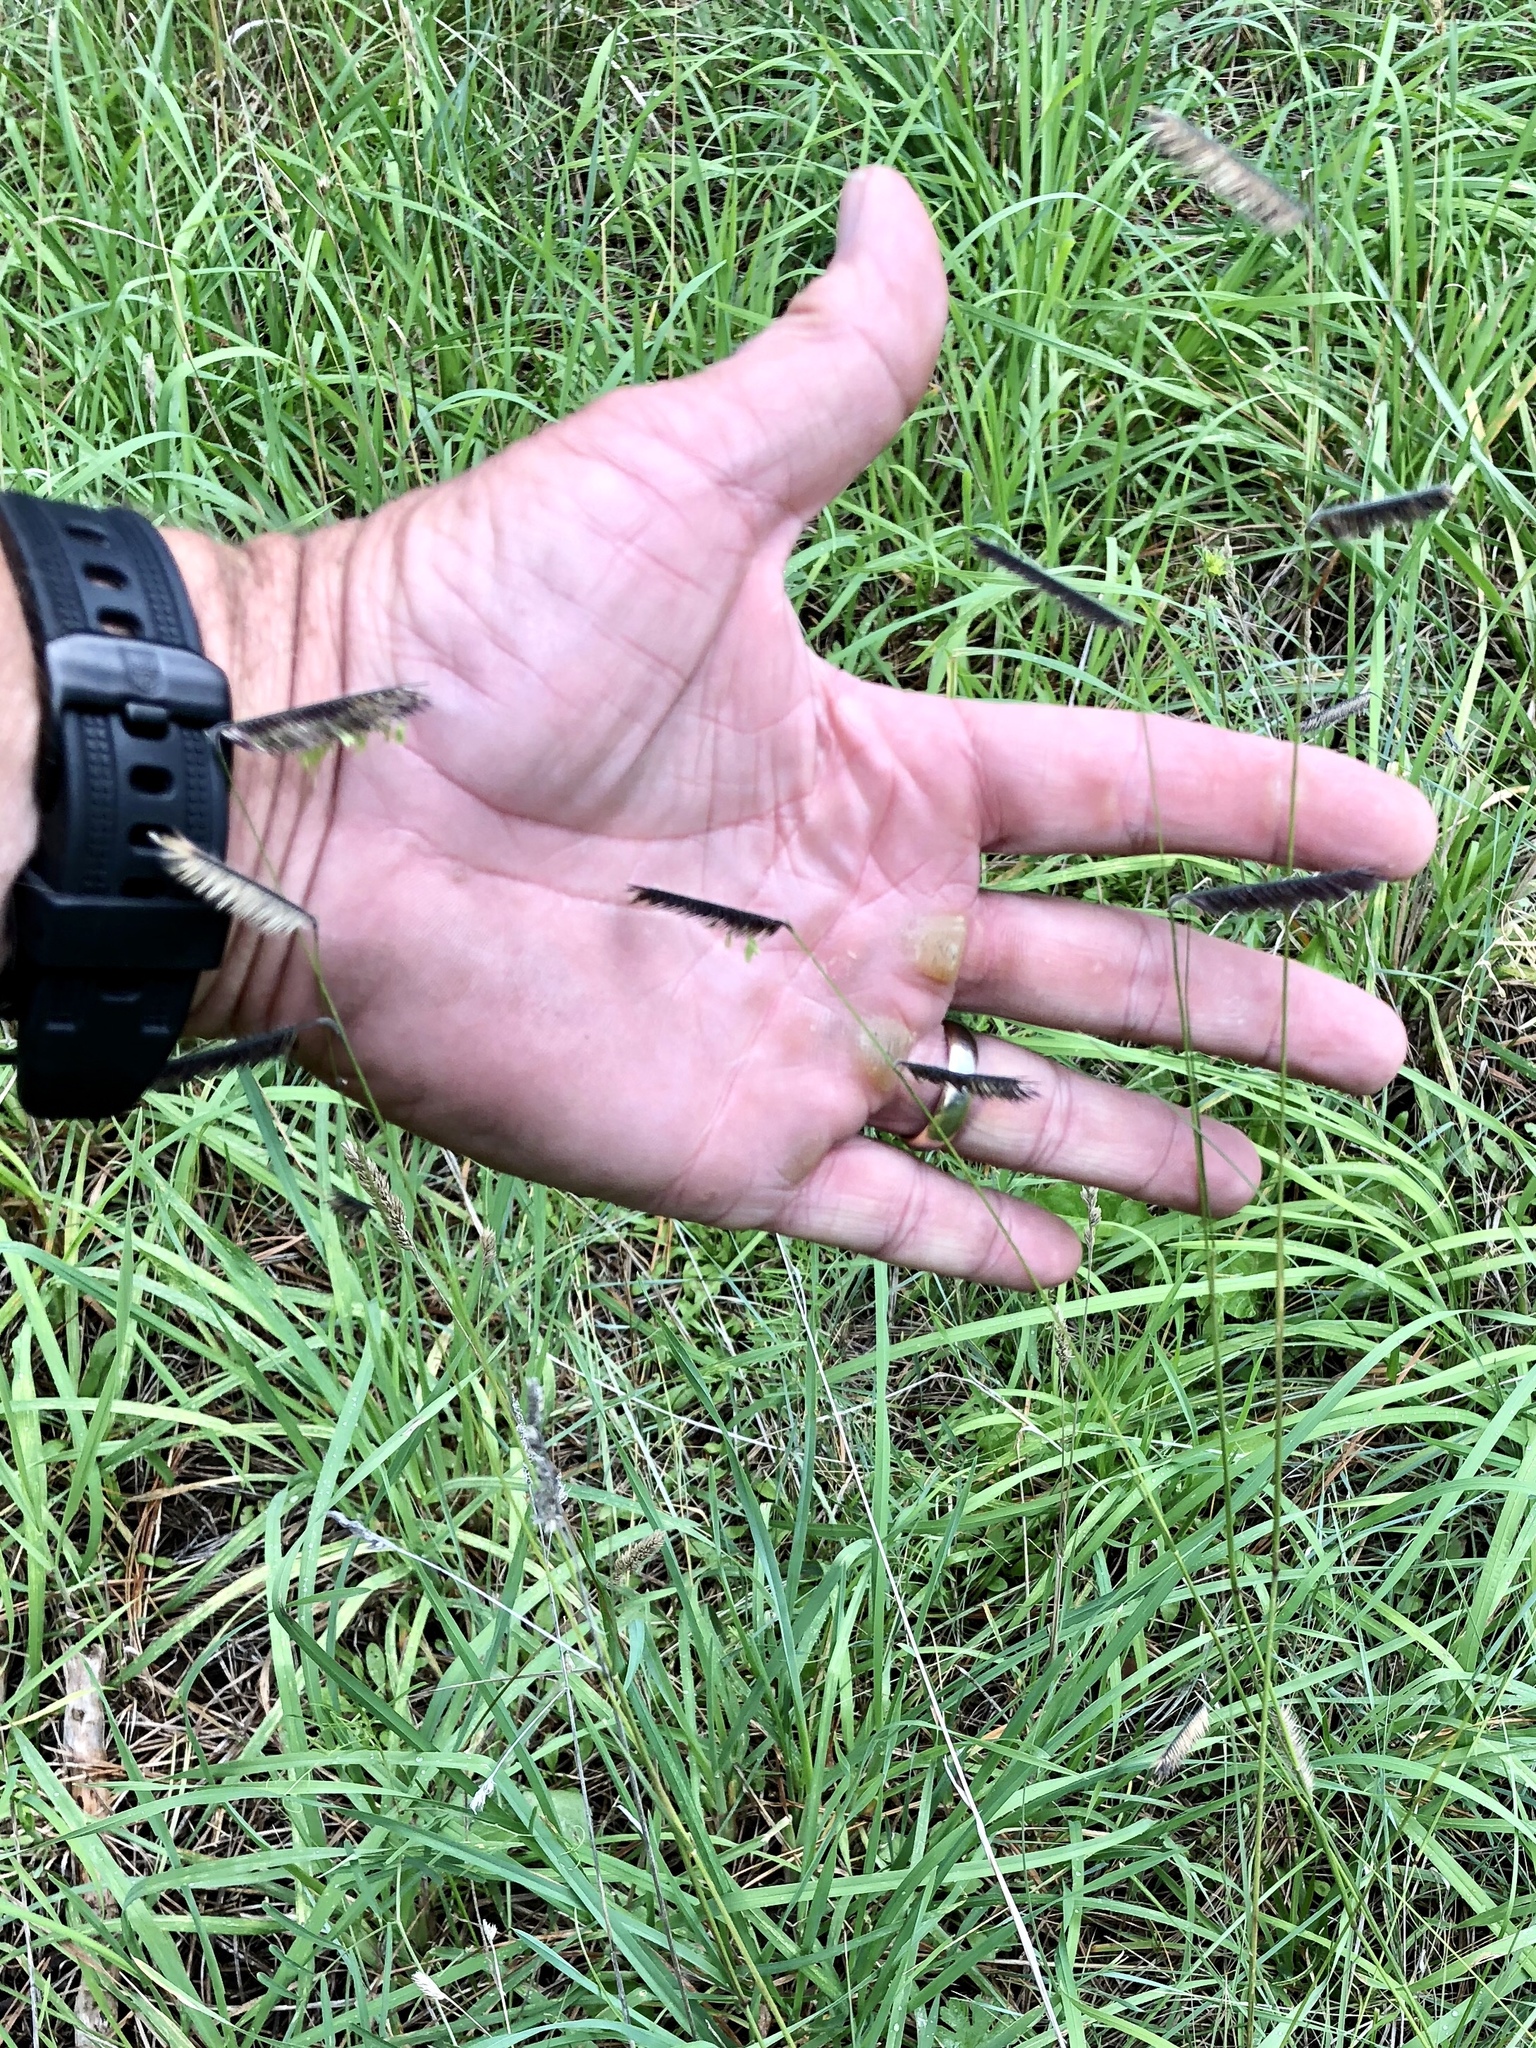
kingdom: Plantae
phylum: Tracheophyta
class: Liliopsida
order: Poales
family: Poaceae
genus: Bouteloua
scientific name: Bouteloua gracilis
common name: Blue grama
